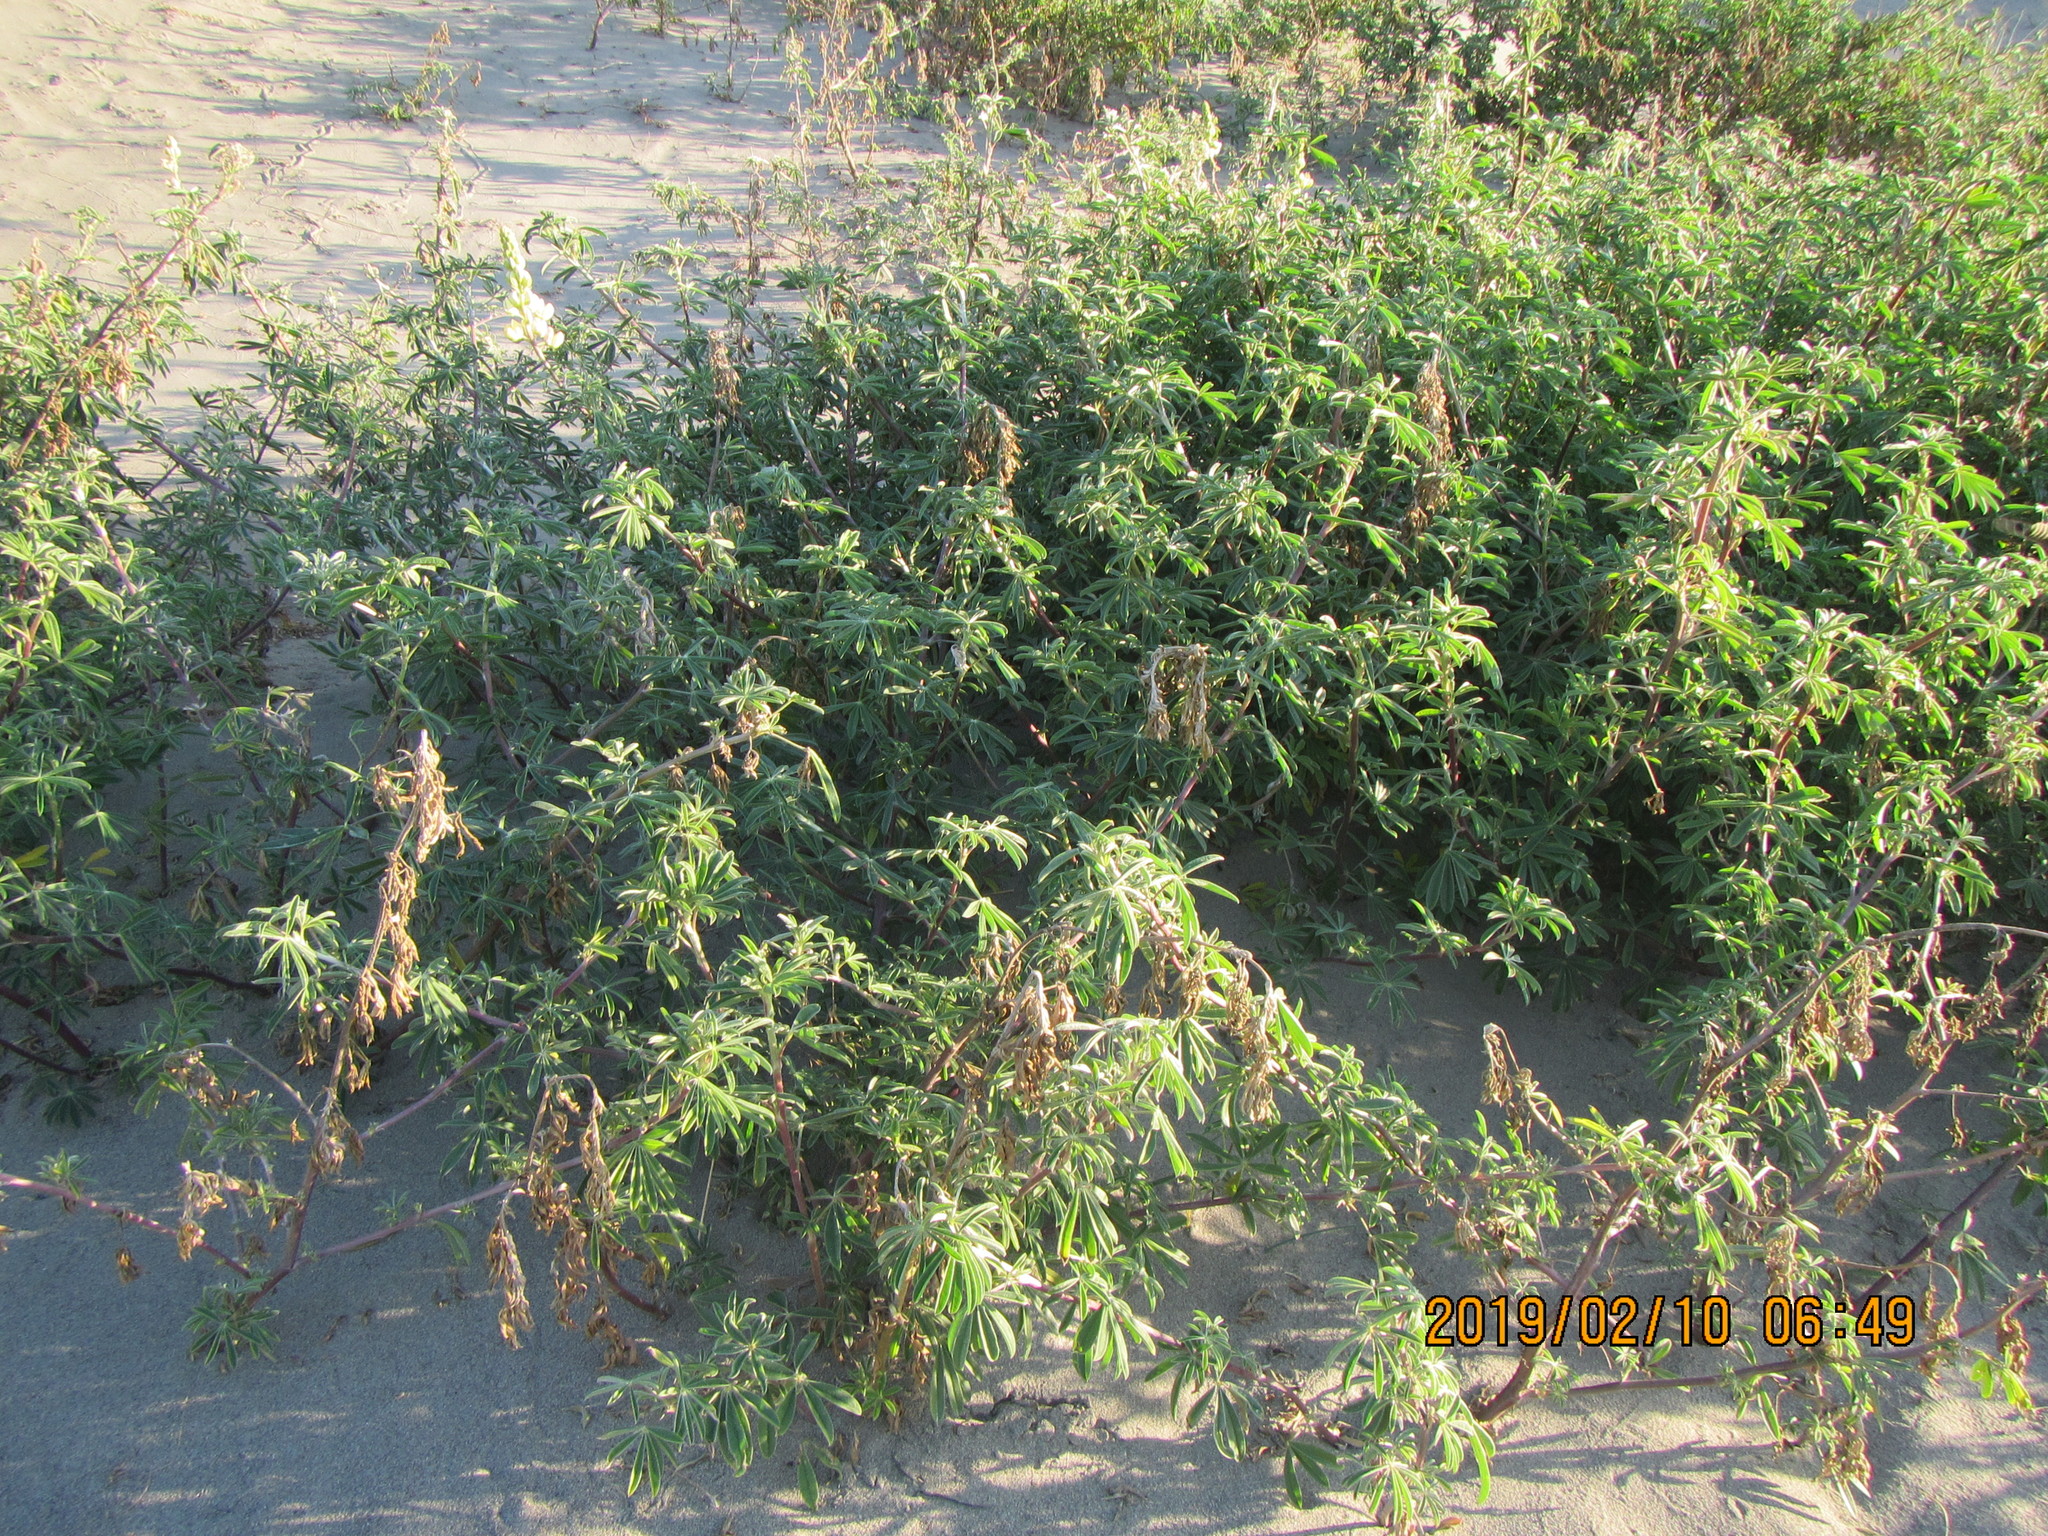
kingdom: Plantae
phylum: Tracheophyta
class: Magnoliopsida
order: Fabales
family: Fabaceae
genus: Lupinus
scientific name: Lupinus arboreus
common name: Yellow bush lupine
